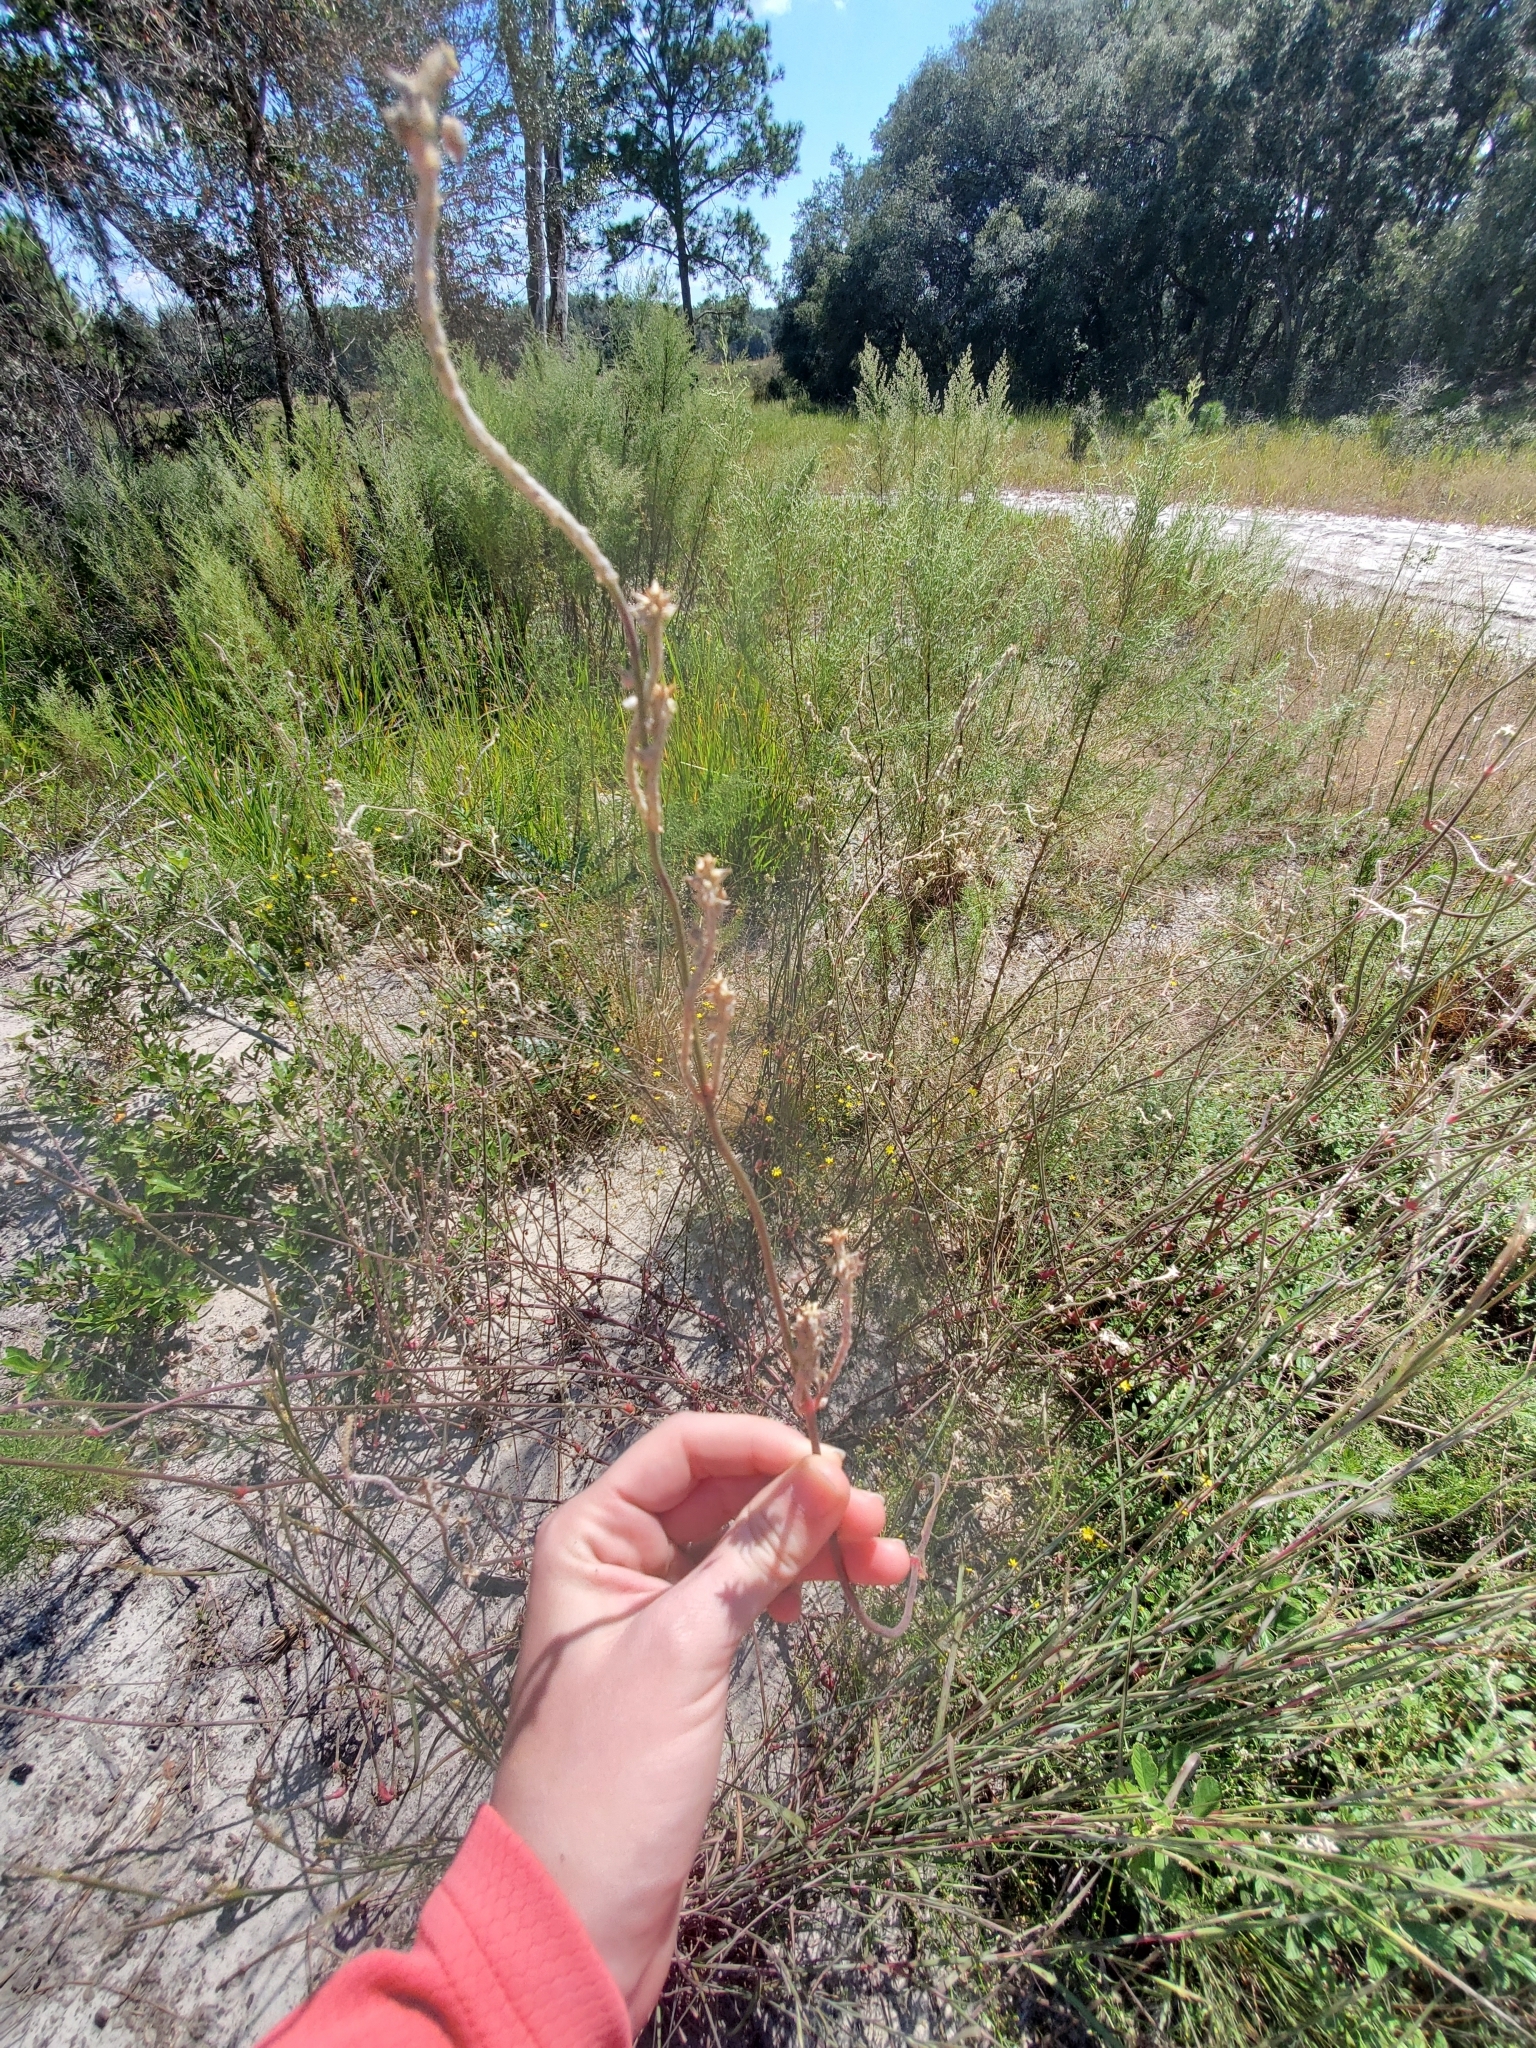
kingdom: Plantae
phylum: Tracheophyta
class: Magnoliopsida
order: Caryophyllales
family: Amaranthaceae
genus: Froelichia
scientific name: Froelichia floridana
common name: Florida snake-cotton
